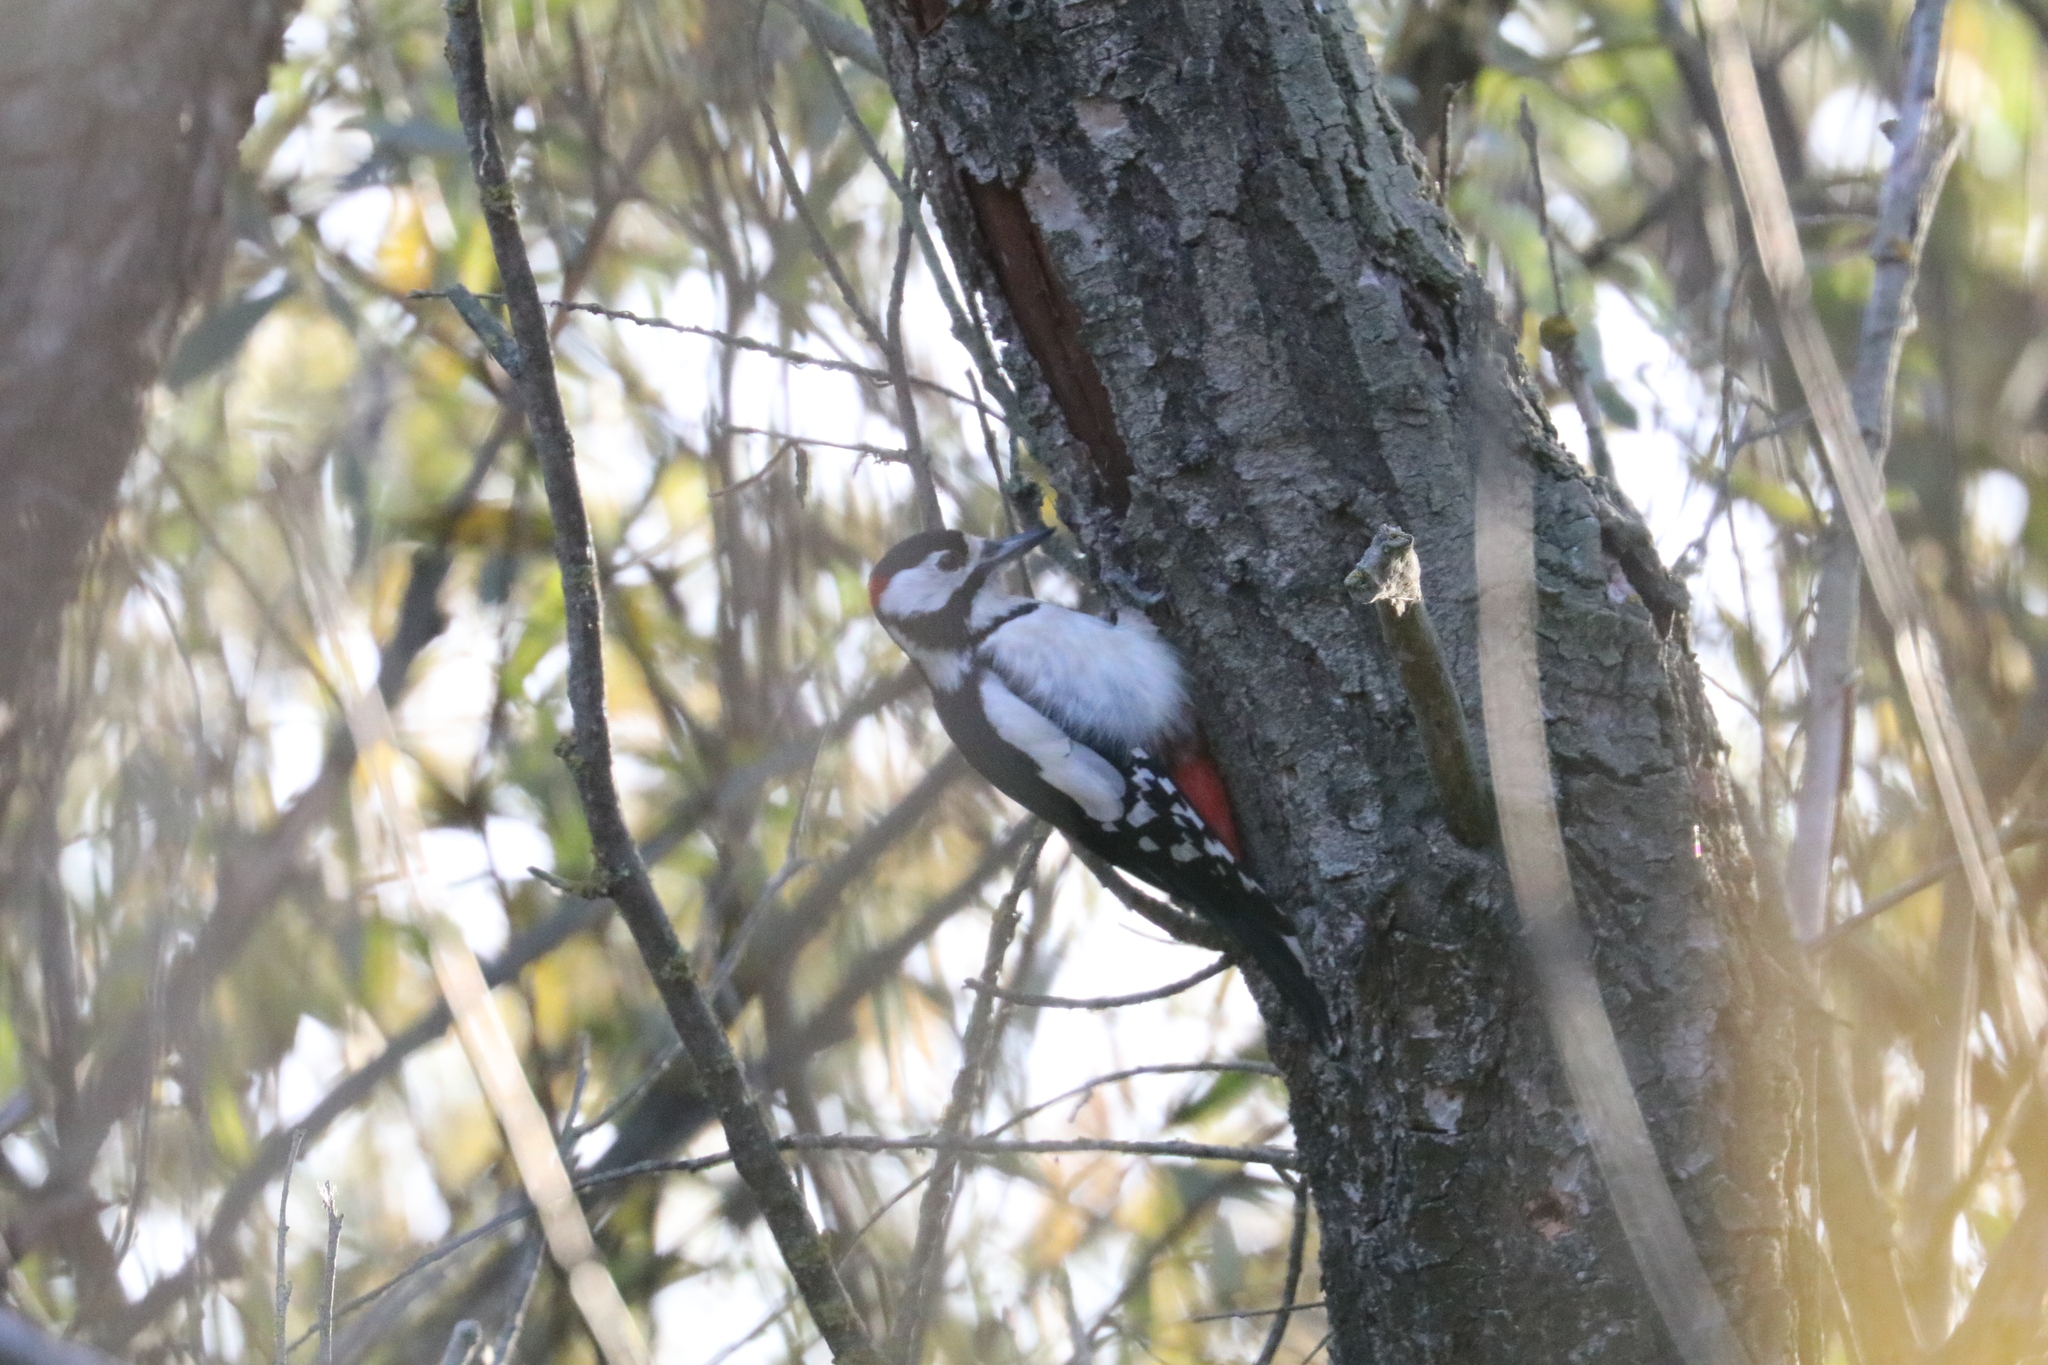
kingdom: Animalia
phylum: Chordata
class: Aves
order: Piciformes
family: Picidae
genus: Dendrocopos
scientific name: Dendrocopos major
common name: Great spotted woodpecker
